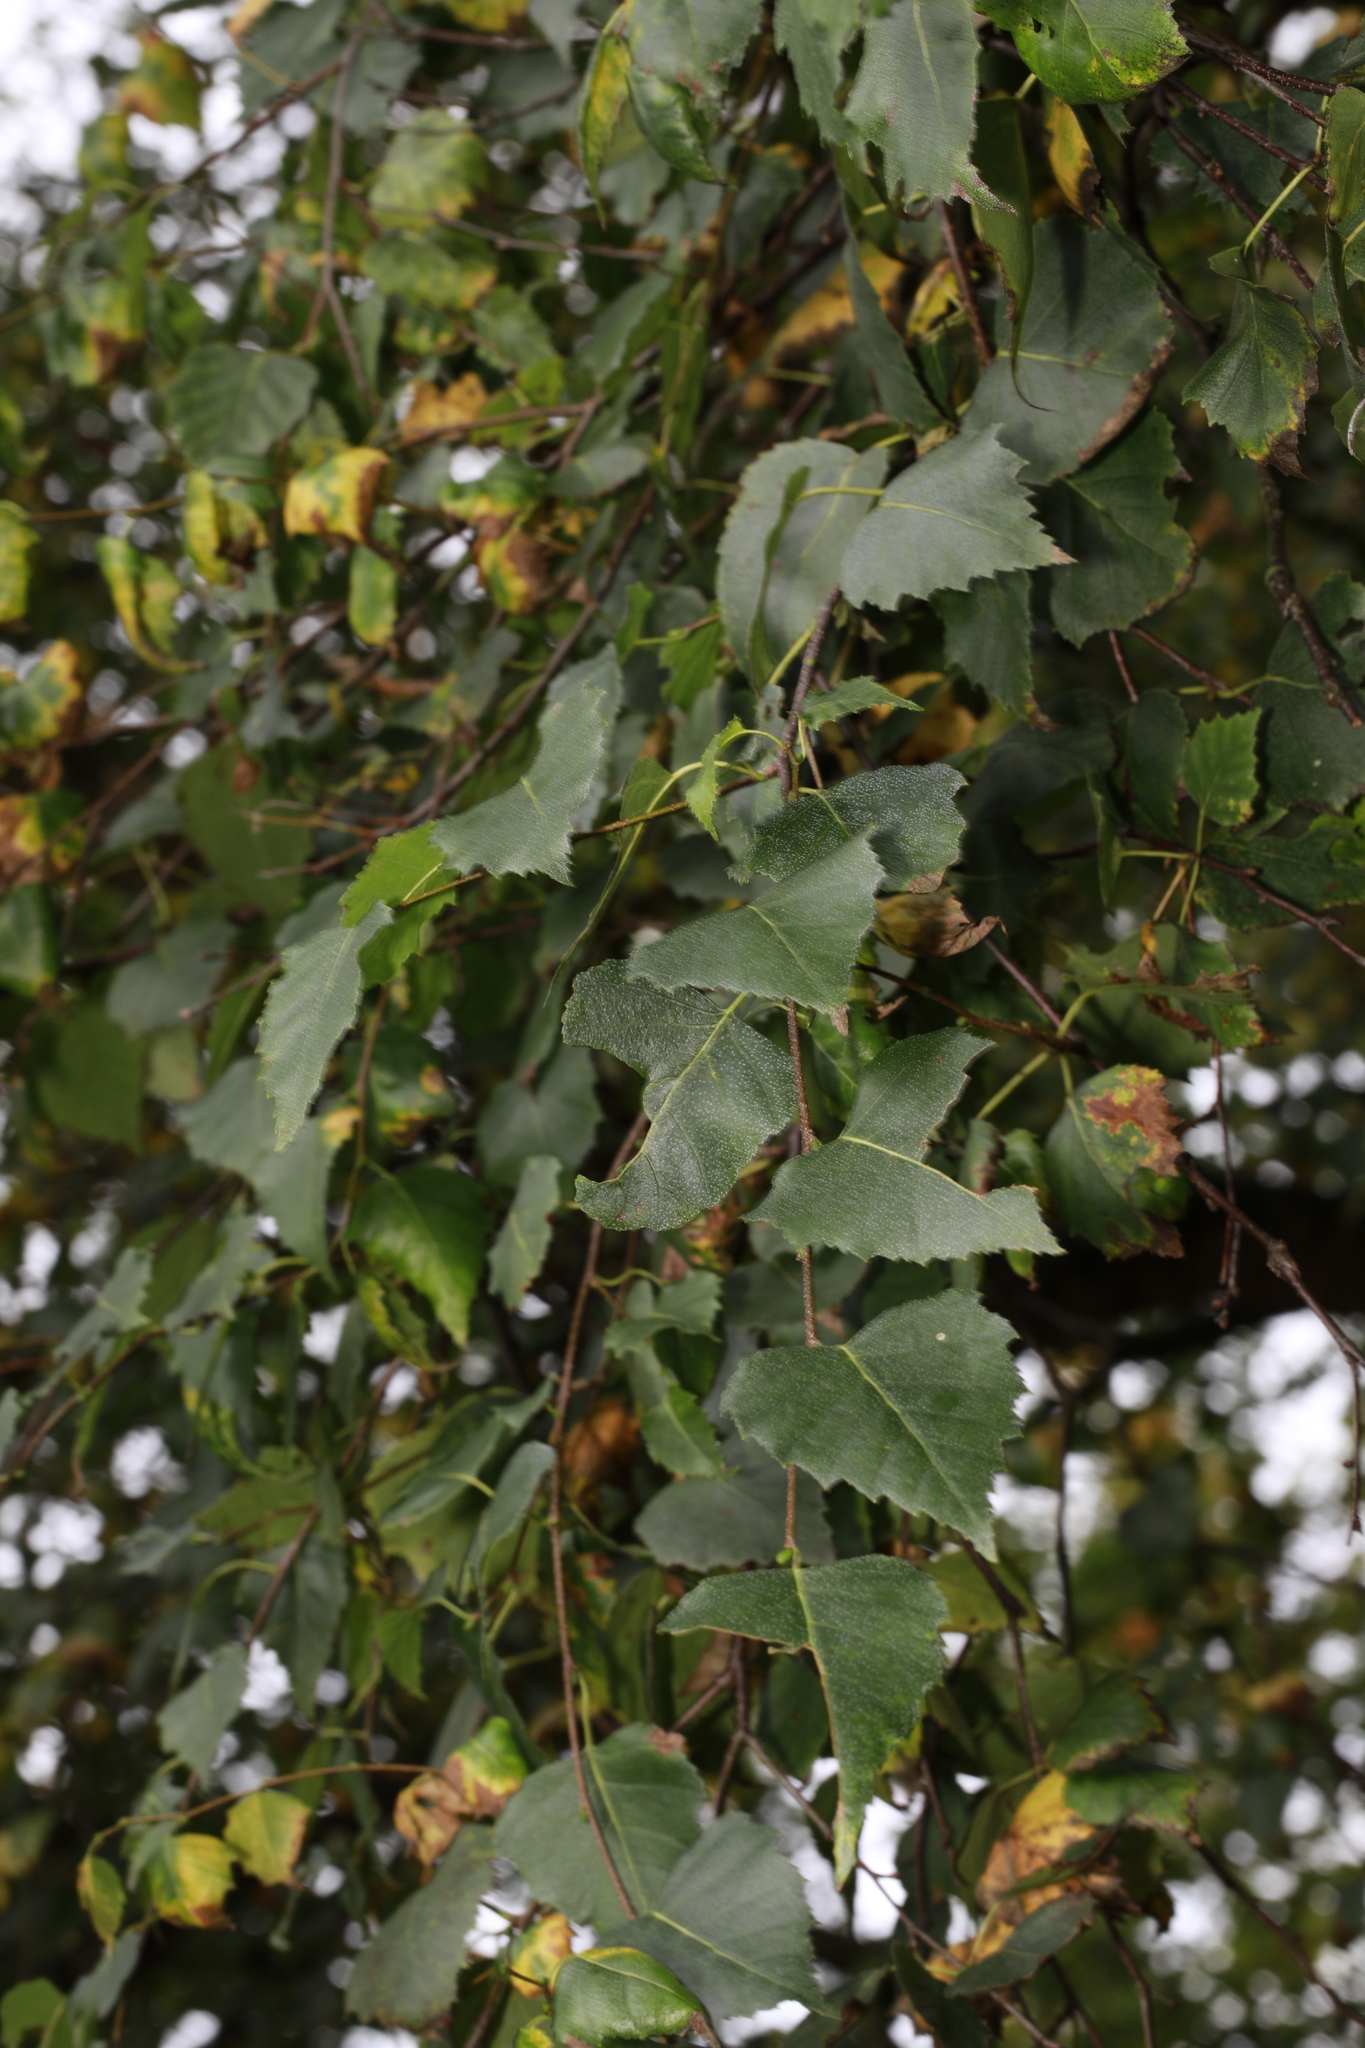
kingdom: Plantae
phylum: Tracheophyta
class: Magnoliopsida
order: Fagales
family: Betulaceae
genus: Betula
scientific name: Betula pendula
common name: Silver birch
